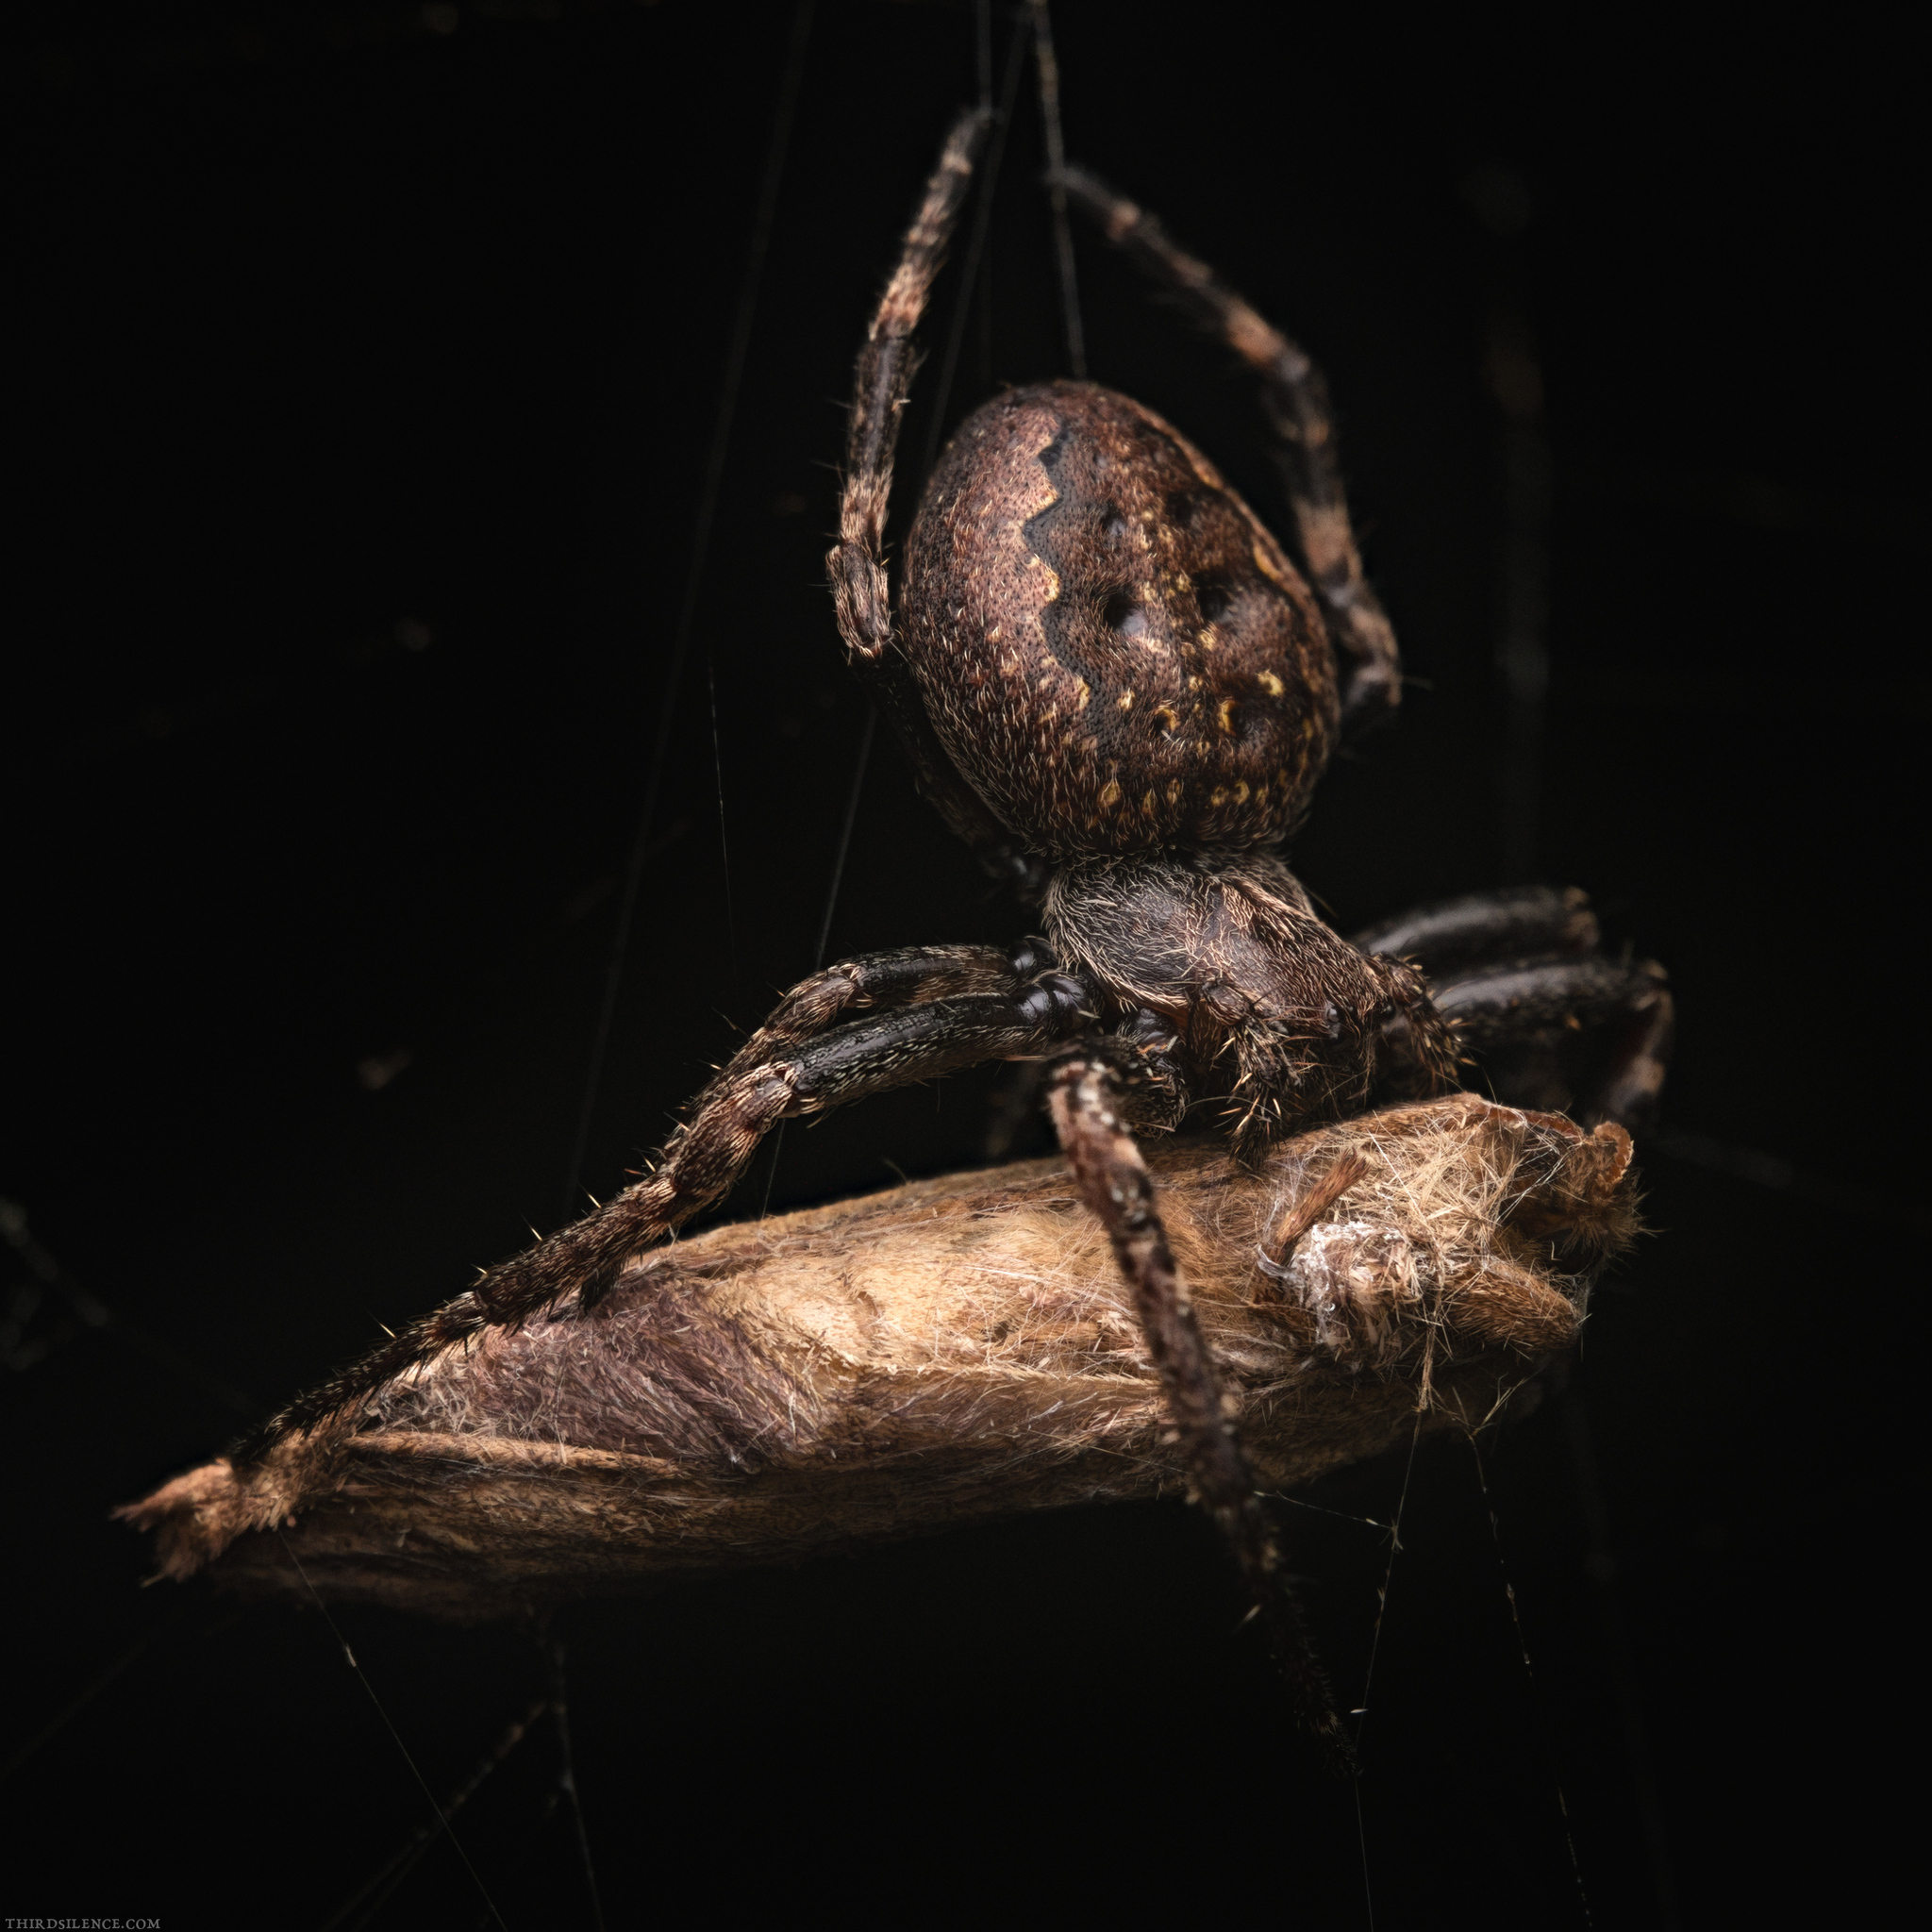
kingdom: Animalia
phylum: Arthropoda
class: Arachnida
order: Araneae
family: Araneidae
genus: Nuctenea
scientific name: Nuctenea umbratica
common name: Toad spider
